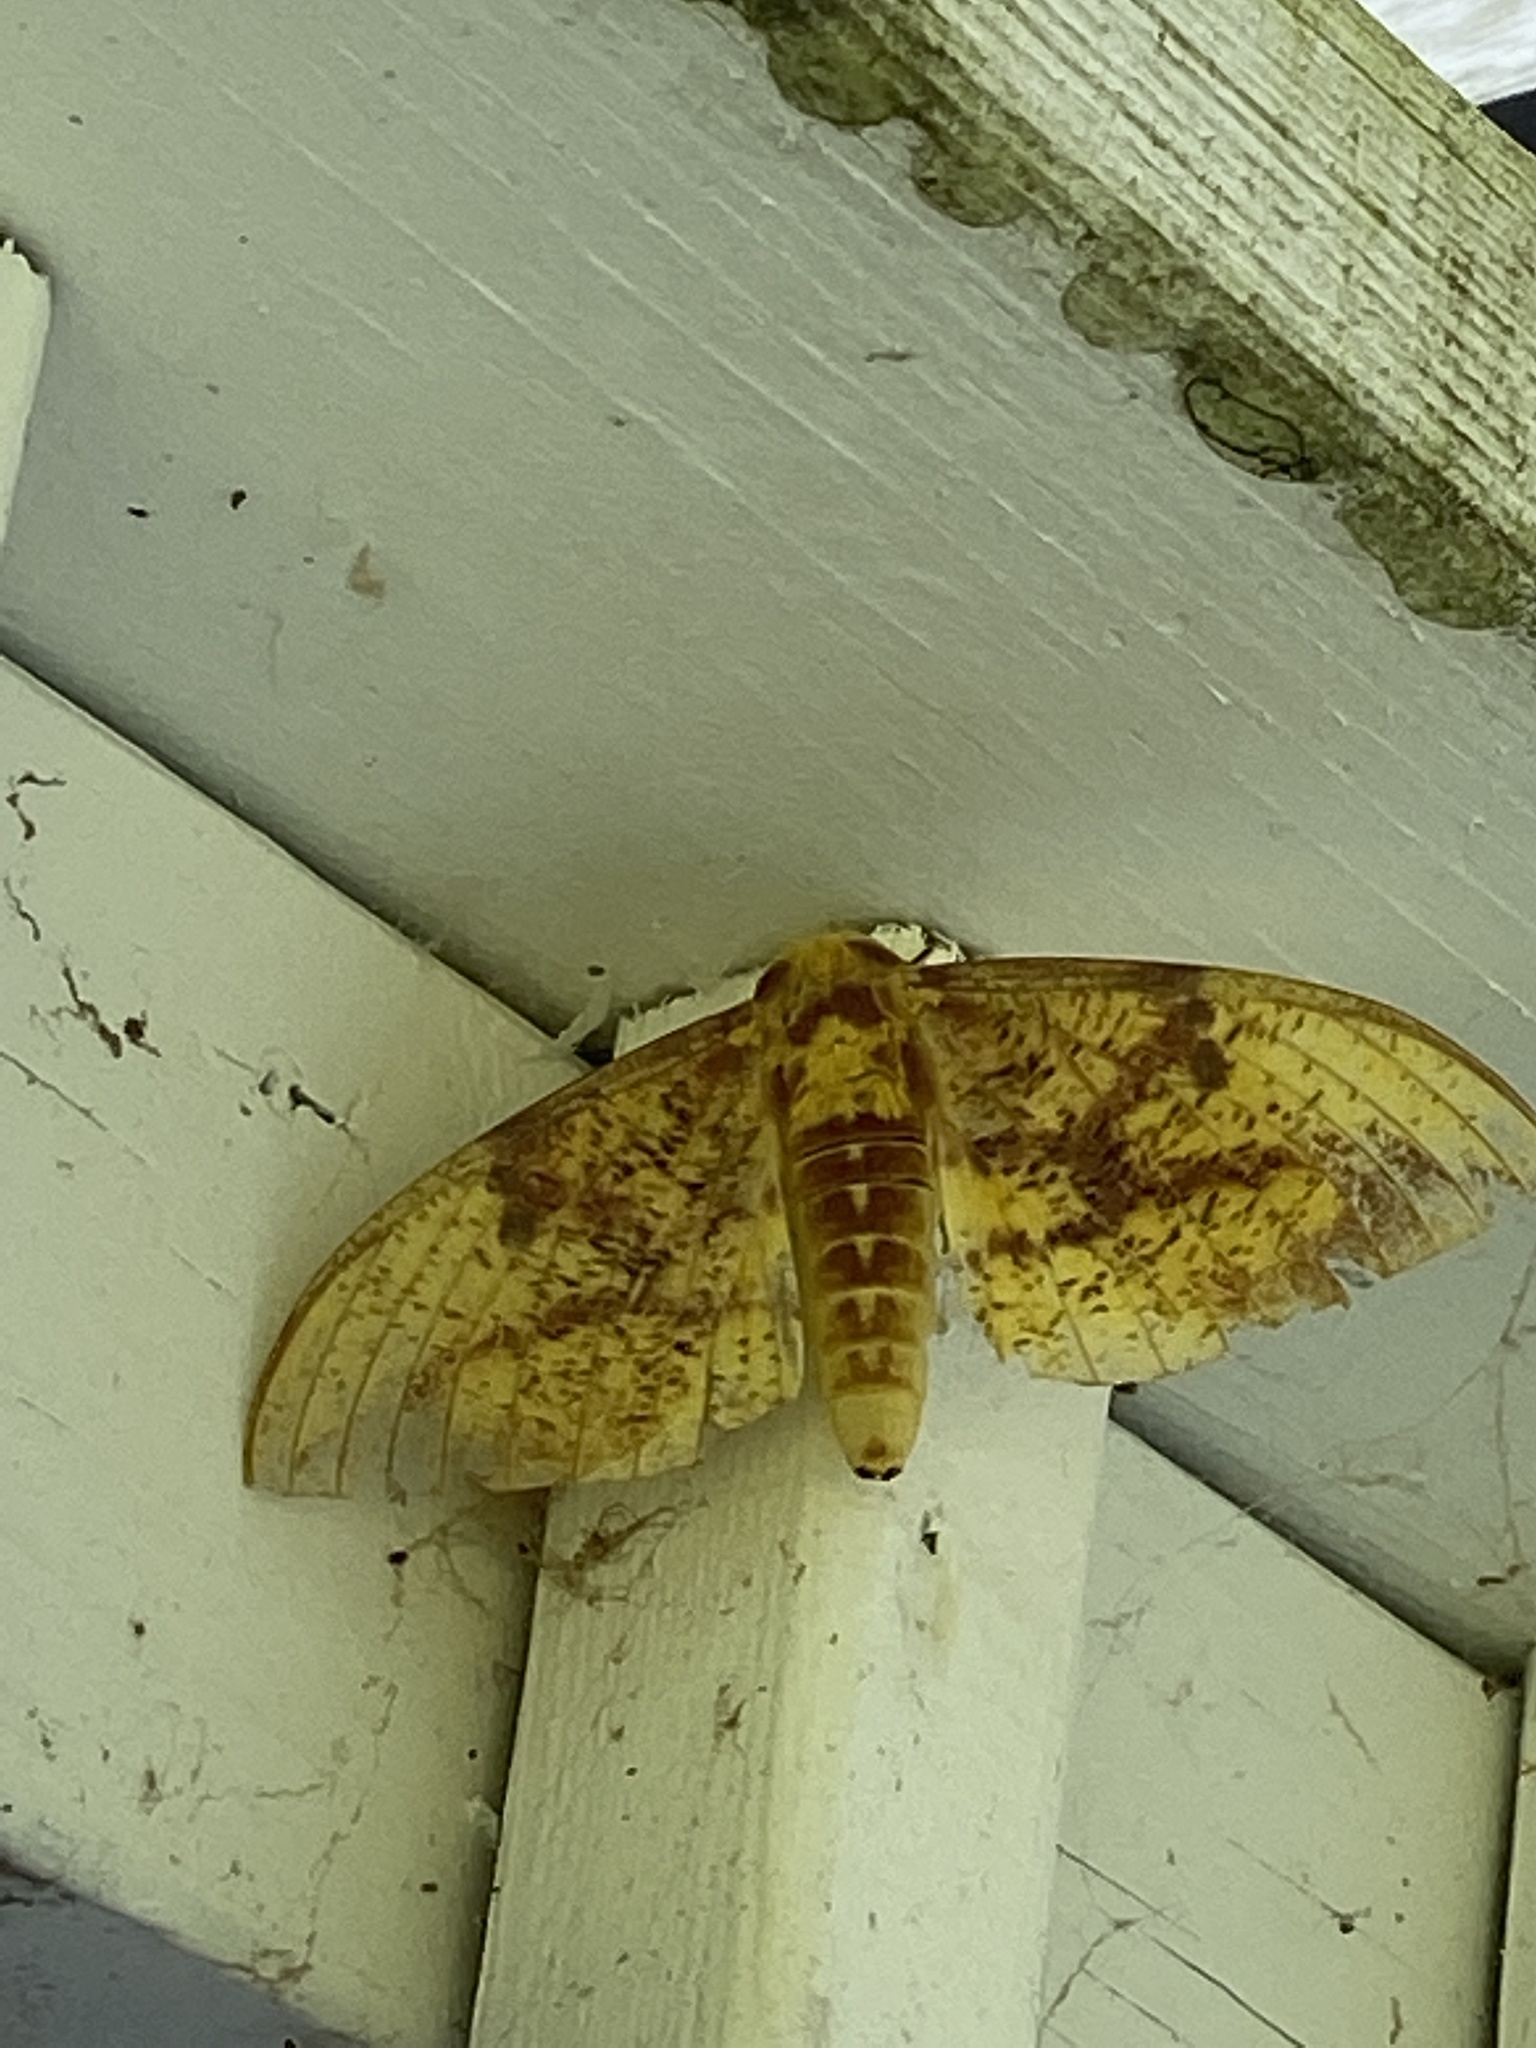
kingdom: Animalia
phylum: Arthropoda
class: Insecta
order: Lepidoptera
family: Saturniidae
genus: Eacles
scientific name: Eacles imperialis
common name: Imperial moth
